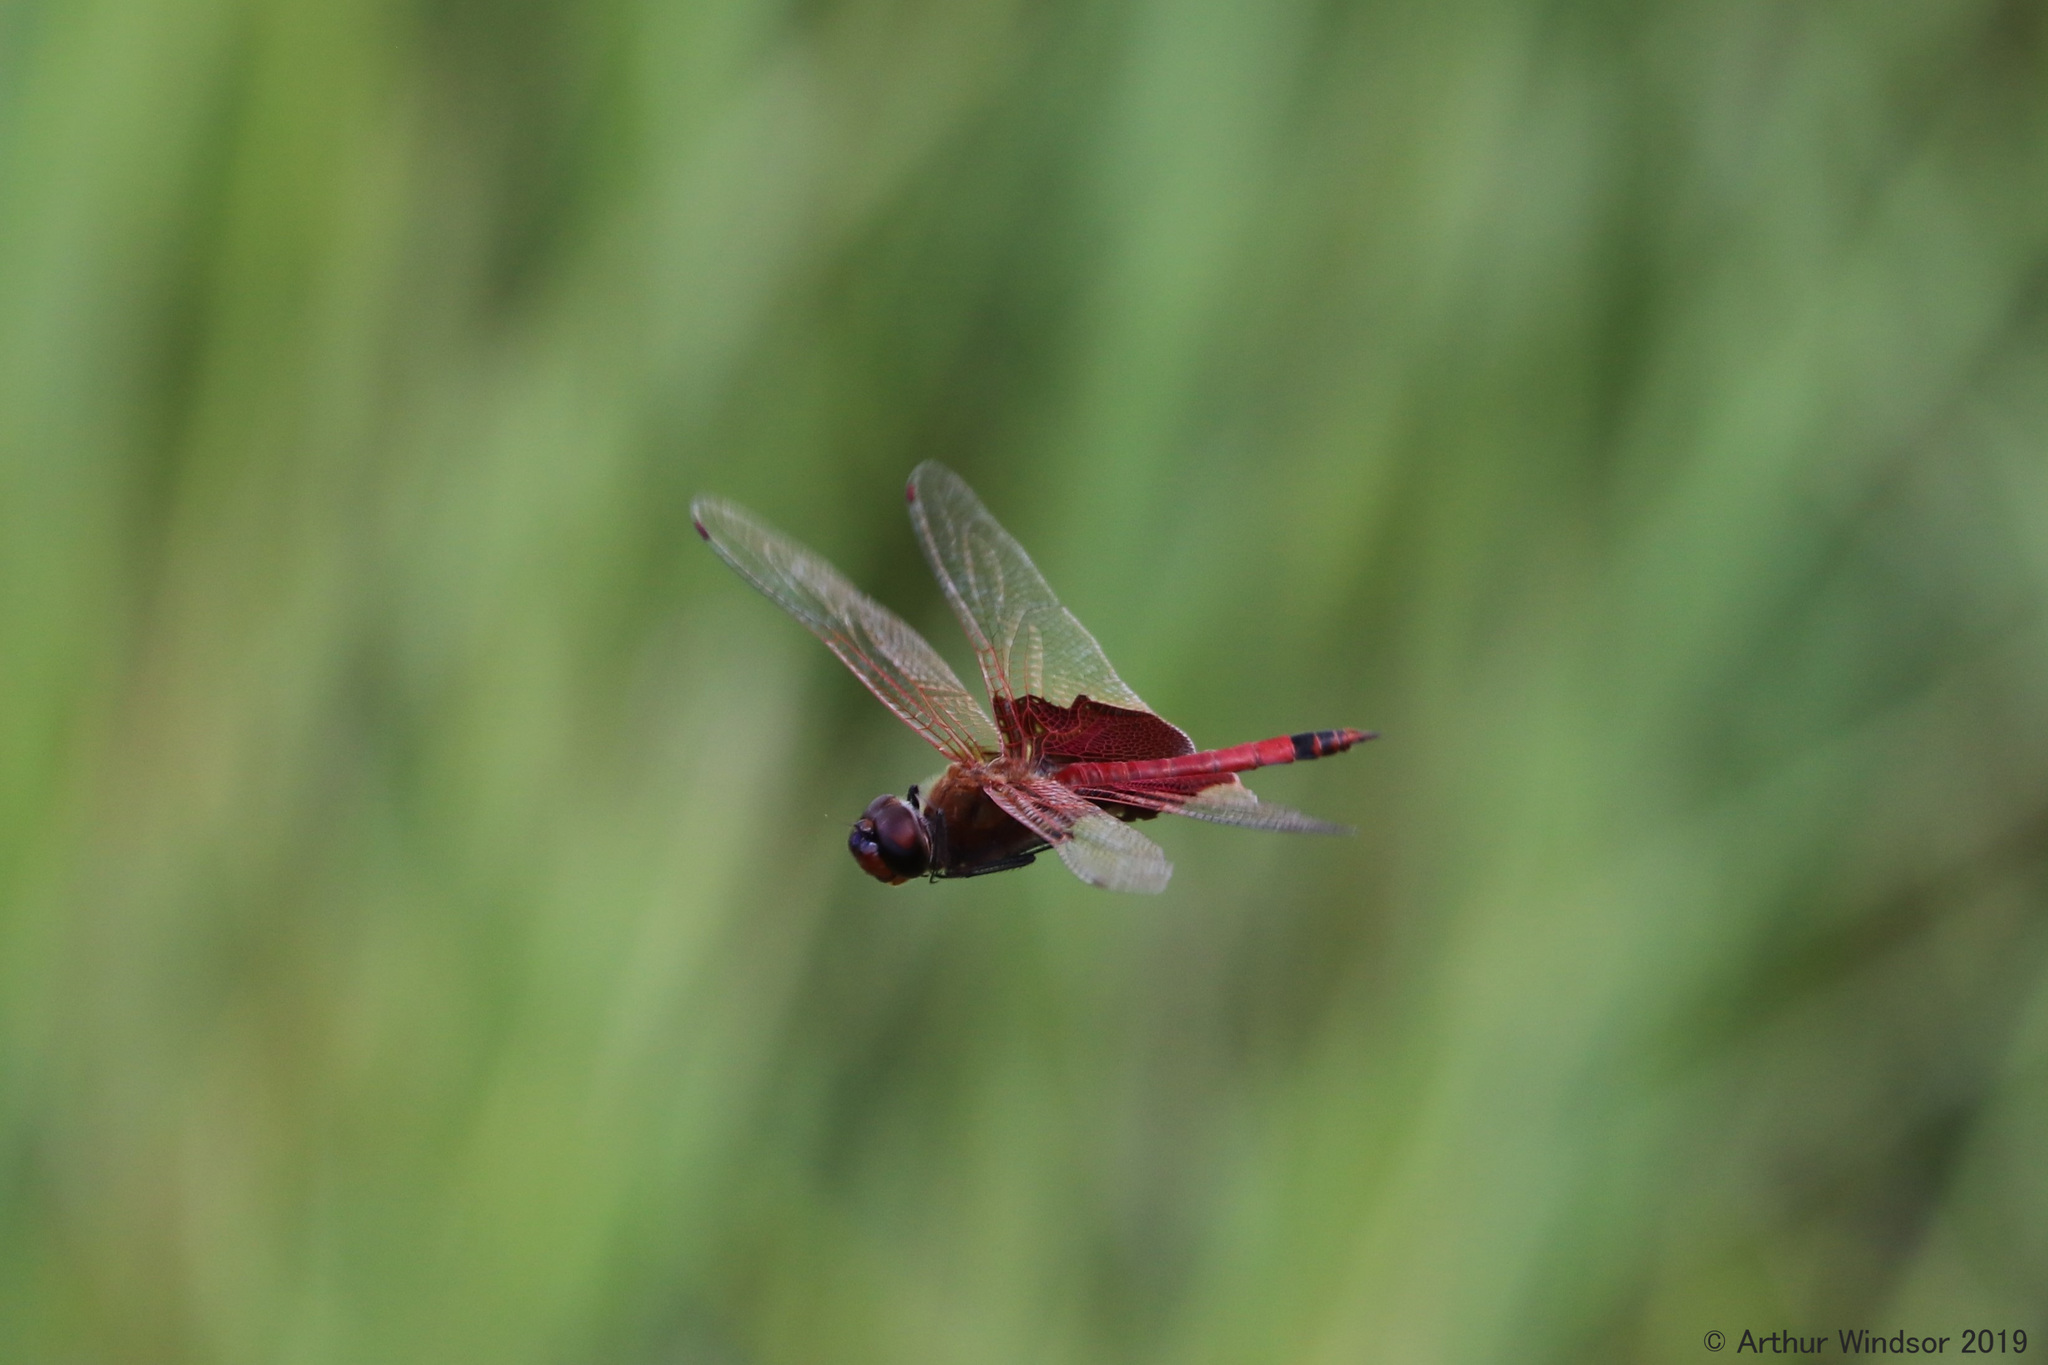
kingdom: Animalia
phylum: Arthropoda
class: Insecta
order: Odonata
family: Libellulidae
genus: Tramea
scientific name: Tramea carolina
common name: Carolina saddlebags
